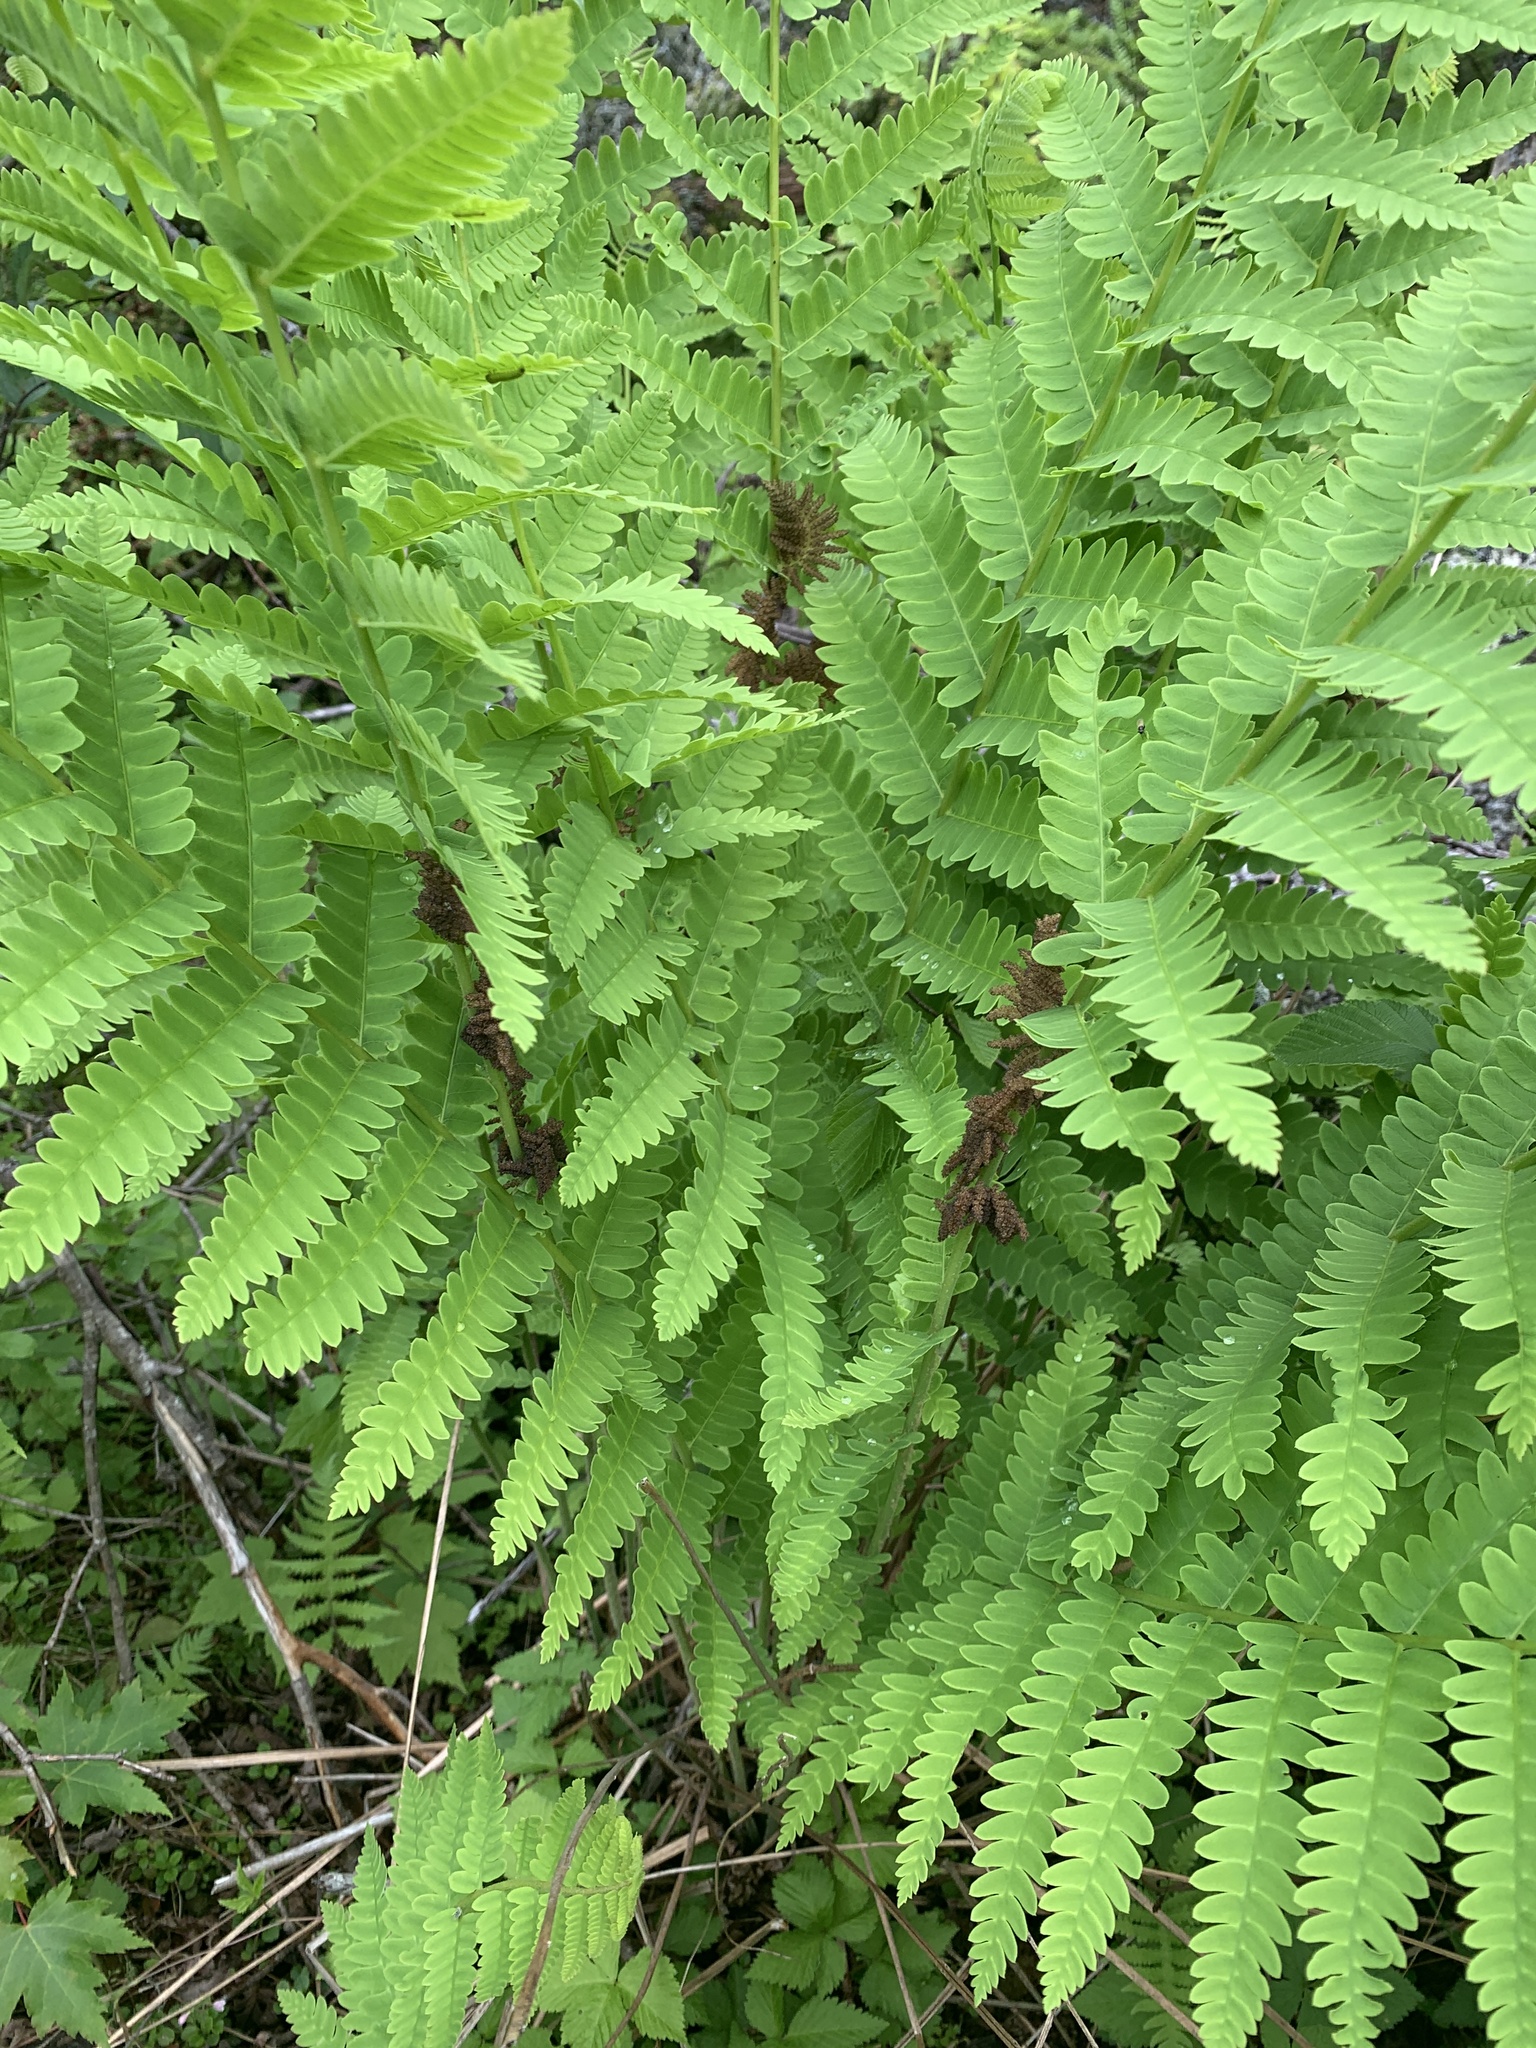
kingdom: Plantae
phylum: Tracheophyta
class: Polypodiopsida
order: Osmundales
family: Osmundaceae
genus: Claytosmunda
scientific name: Claytosmunda claytoniana
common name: Clayton's fern
